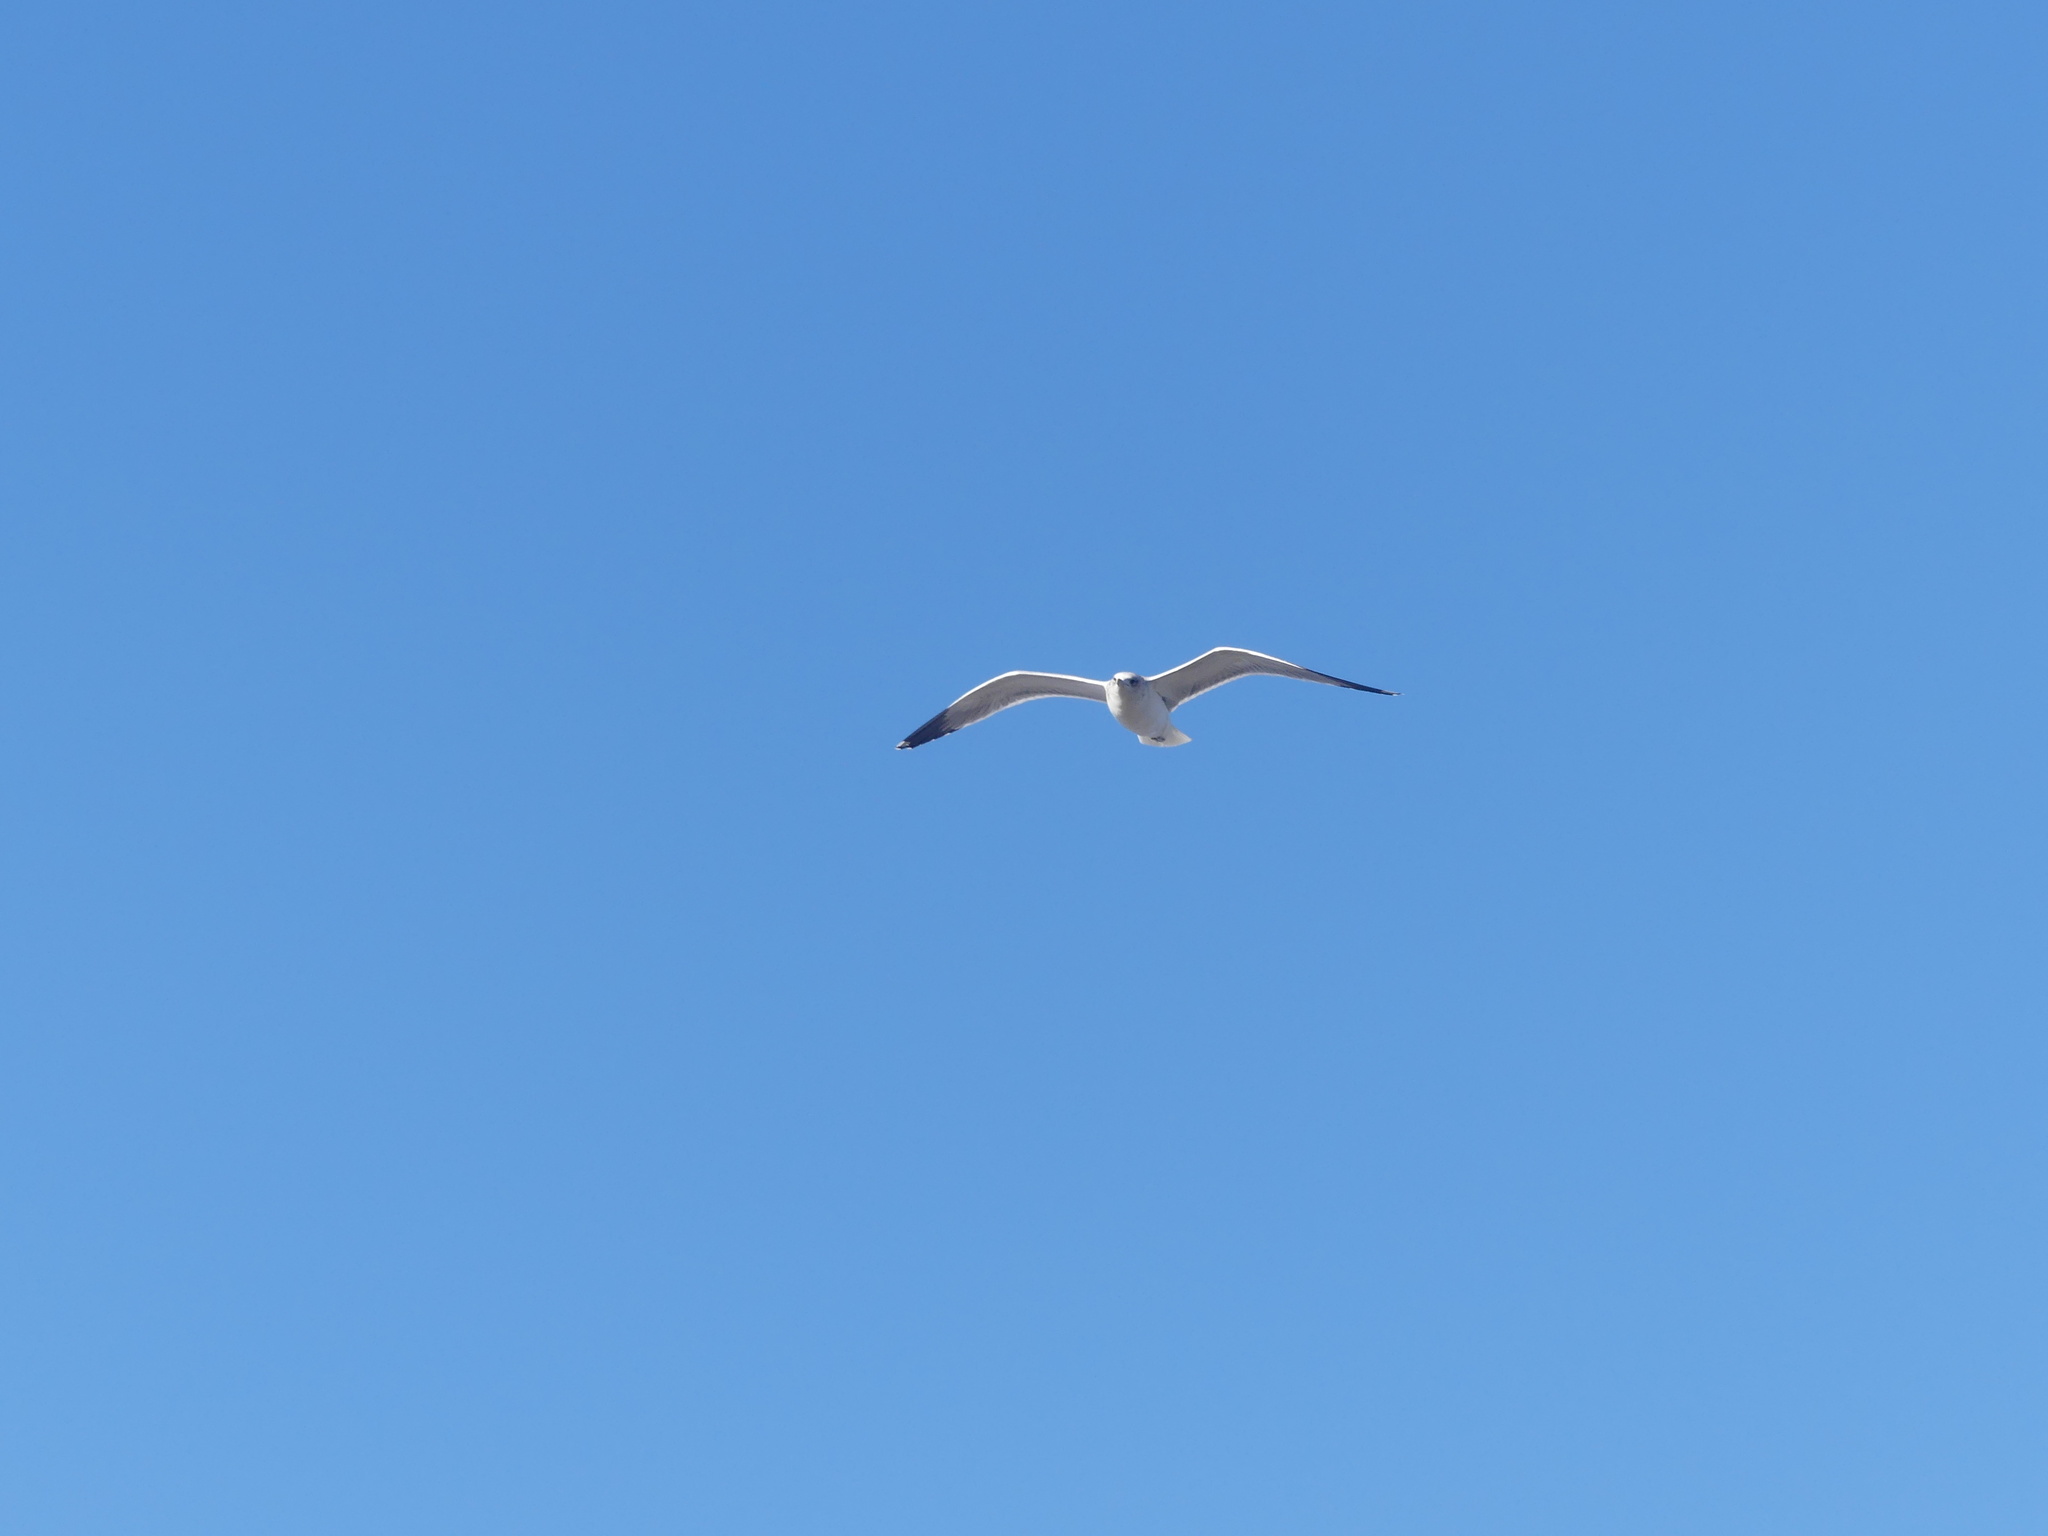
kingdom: Animalia
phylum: Chordata
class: Aves
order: Charadriiformes
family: Laridae
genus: Larus
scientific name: Larus delawarensis
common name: Ring-billed gull
